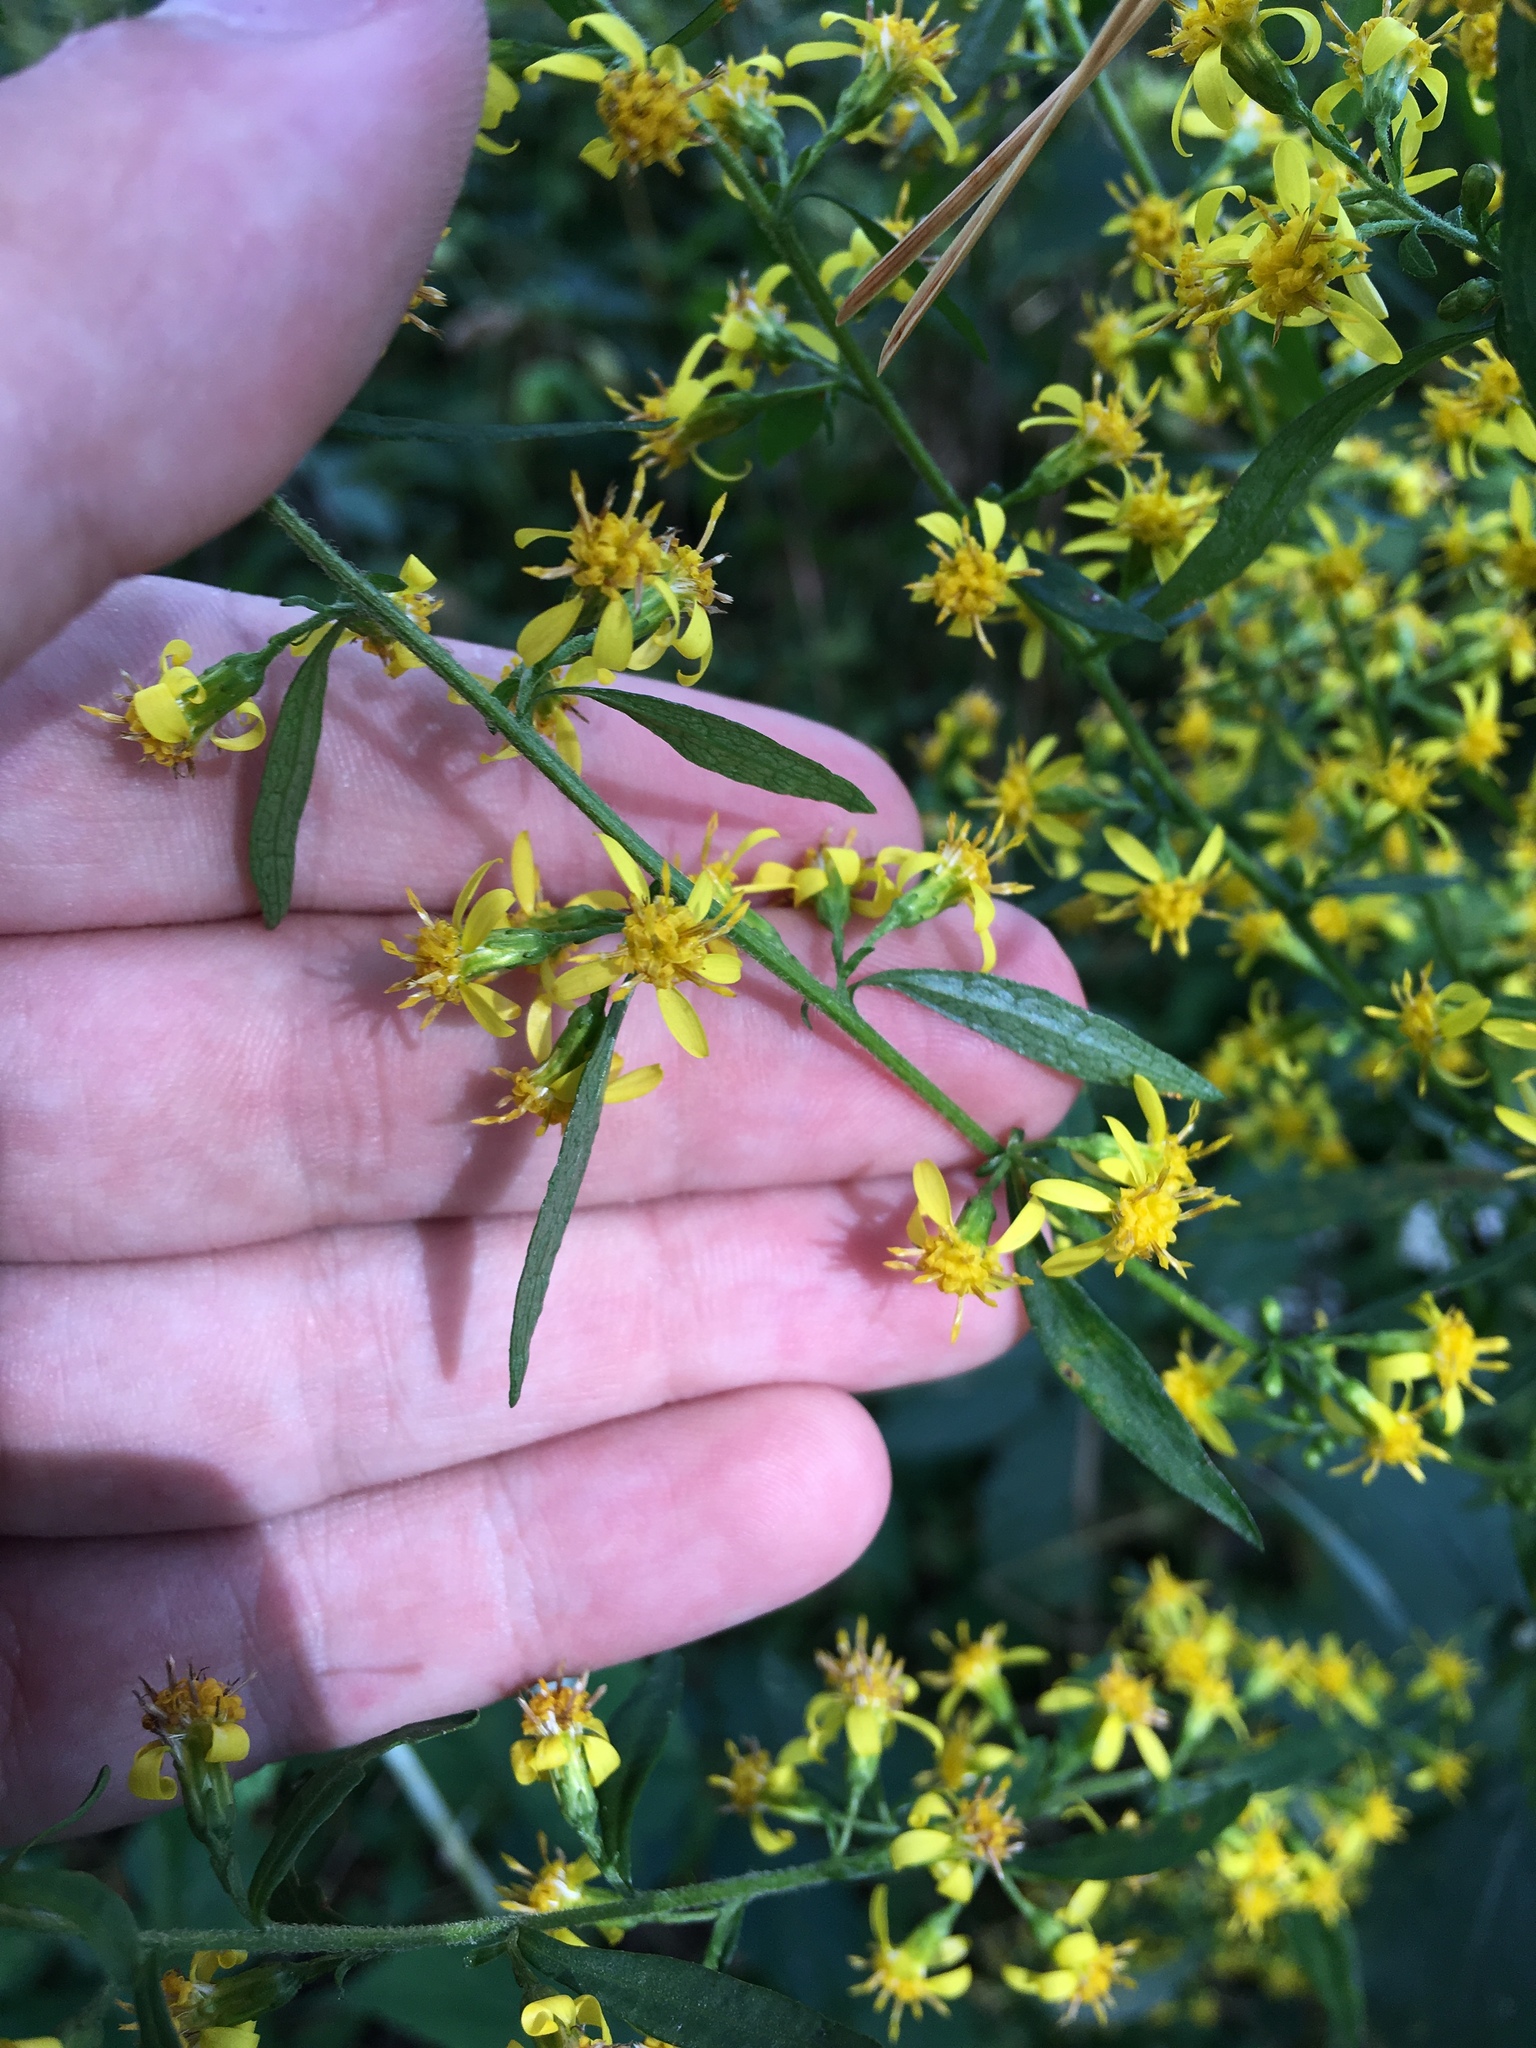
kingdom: Plantae
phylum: Tracheophyta
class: Magnoliopsida
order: Asterales
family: Asteraceae
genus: Solidago
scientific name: Solidago flexicaulis
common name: Zig-zag goldenrod
